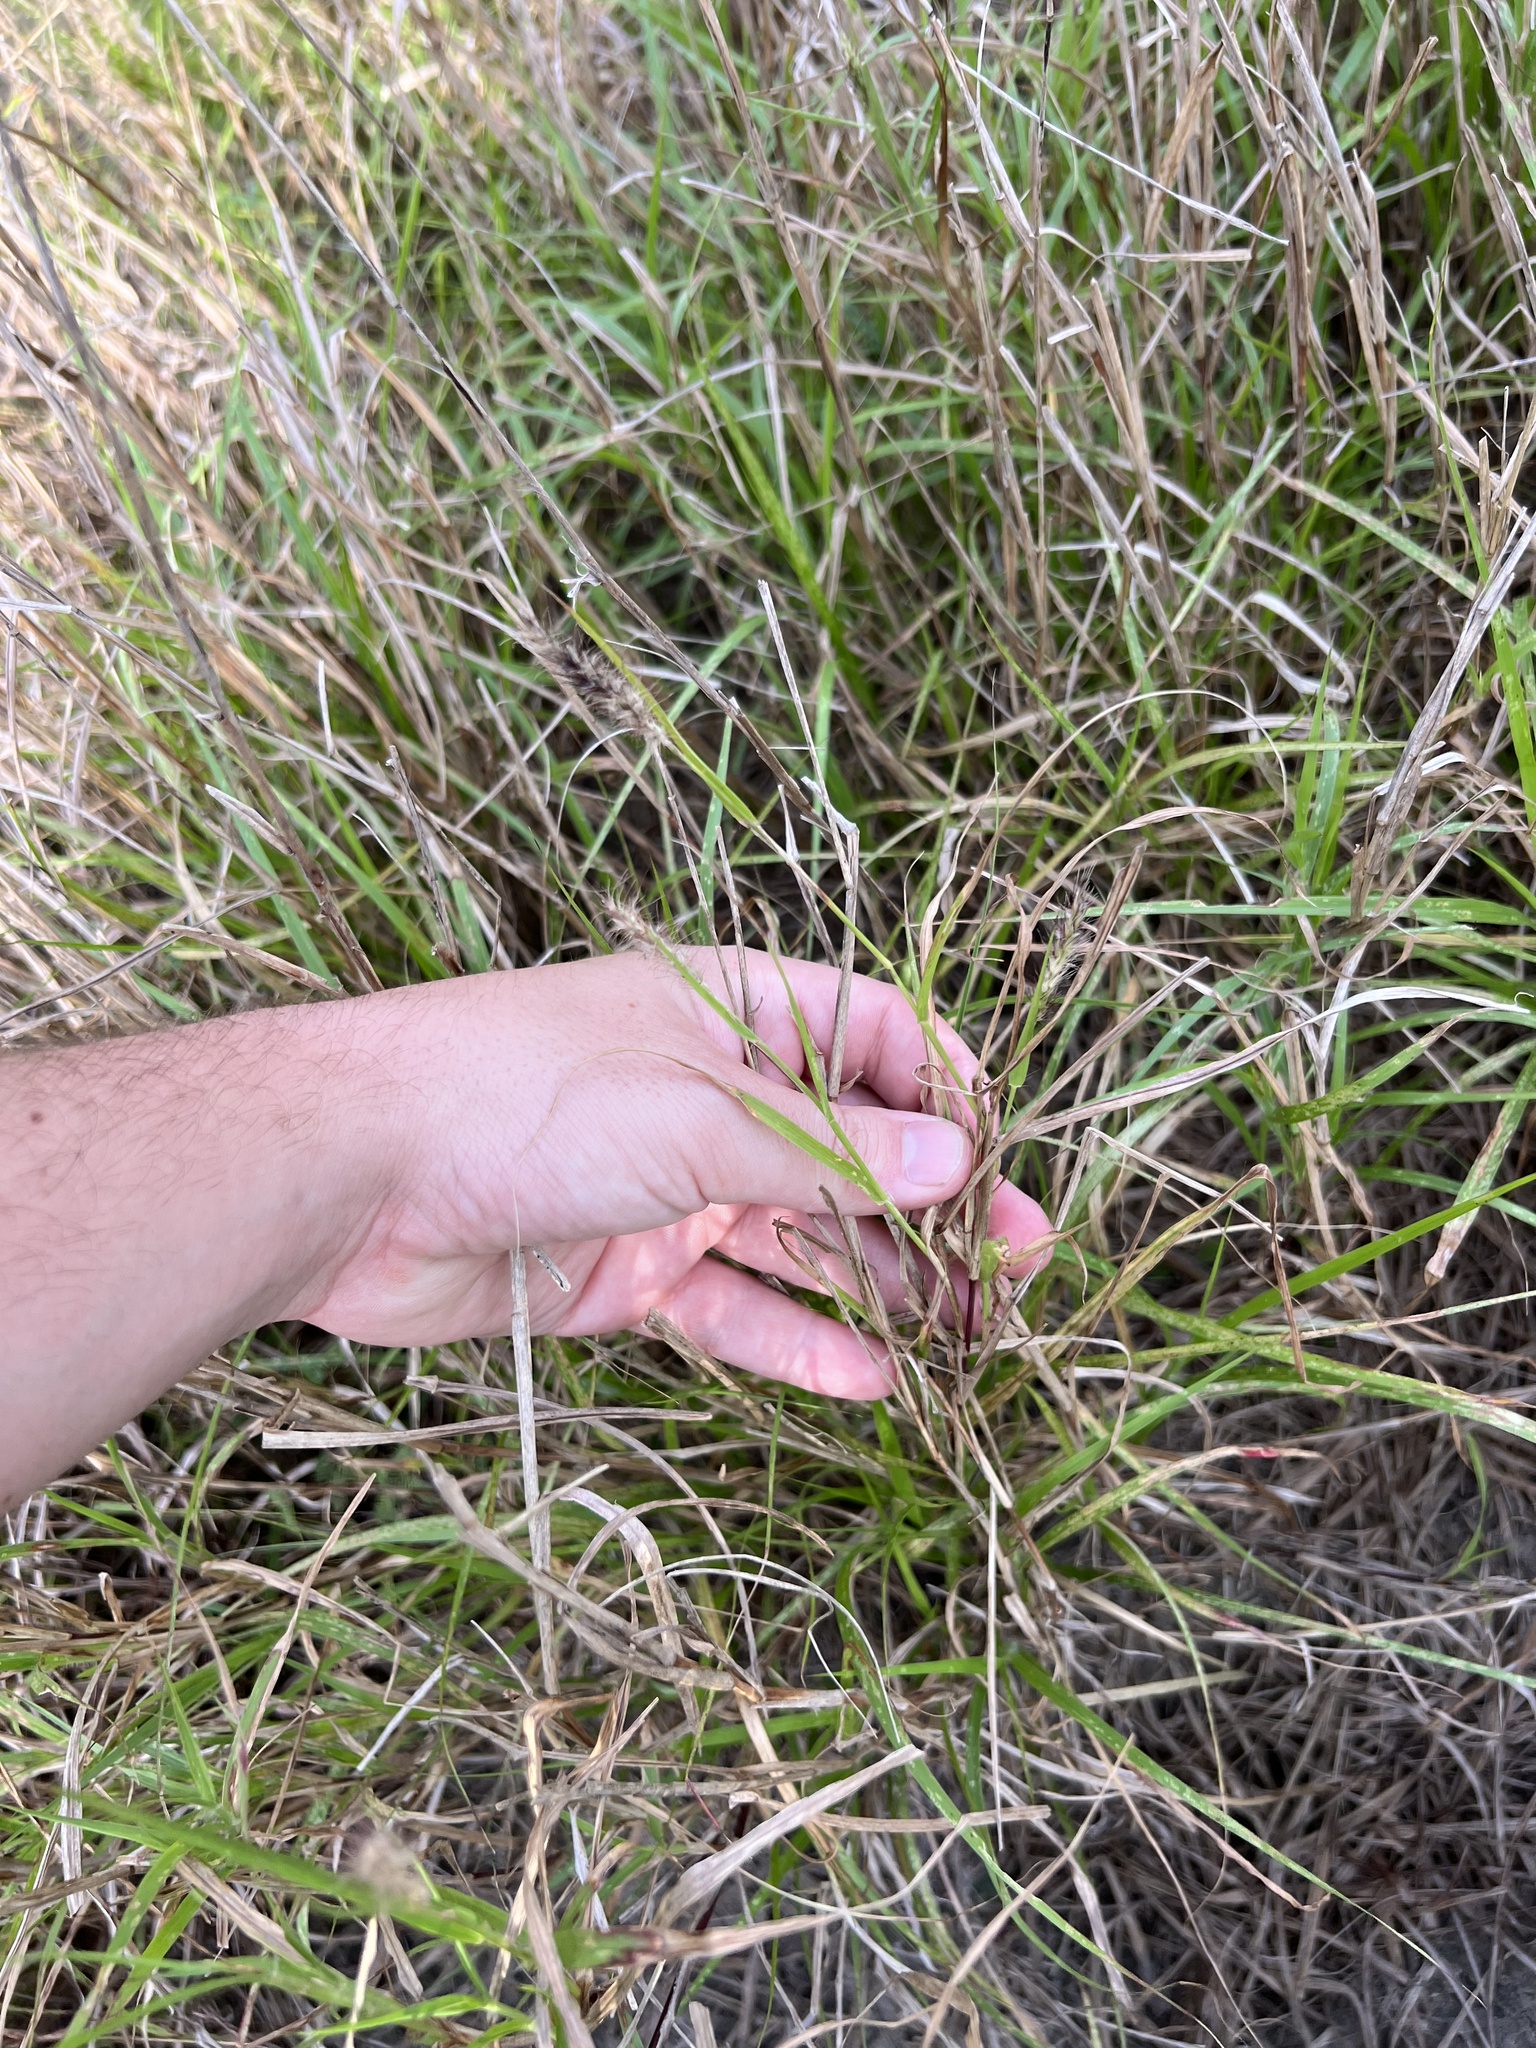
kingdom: Plantae
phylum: Tracheophyta
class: Liliopsida
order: Poales
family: Poaceae
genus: Cenchrus
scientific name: Cenchrus ciliaris
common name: Buffelgrass
